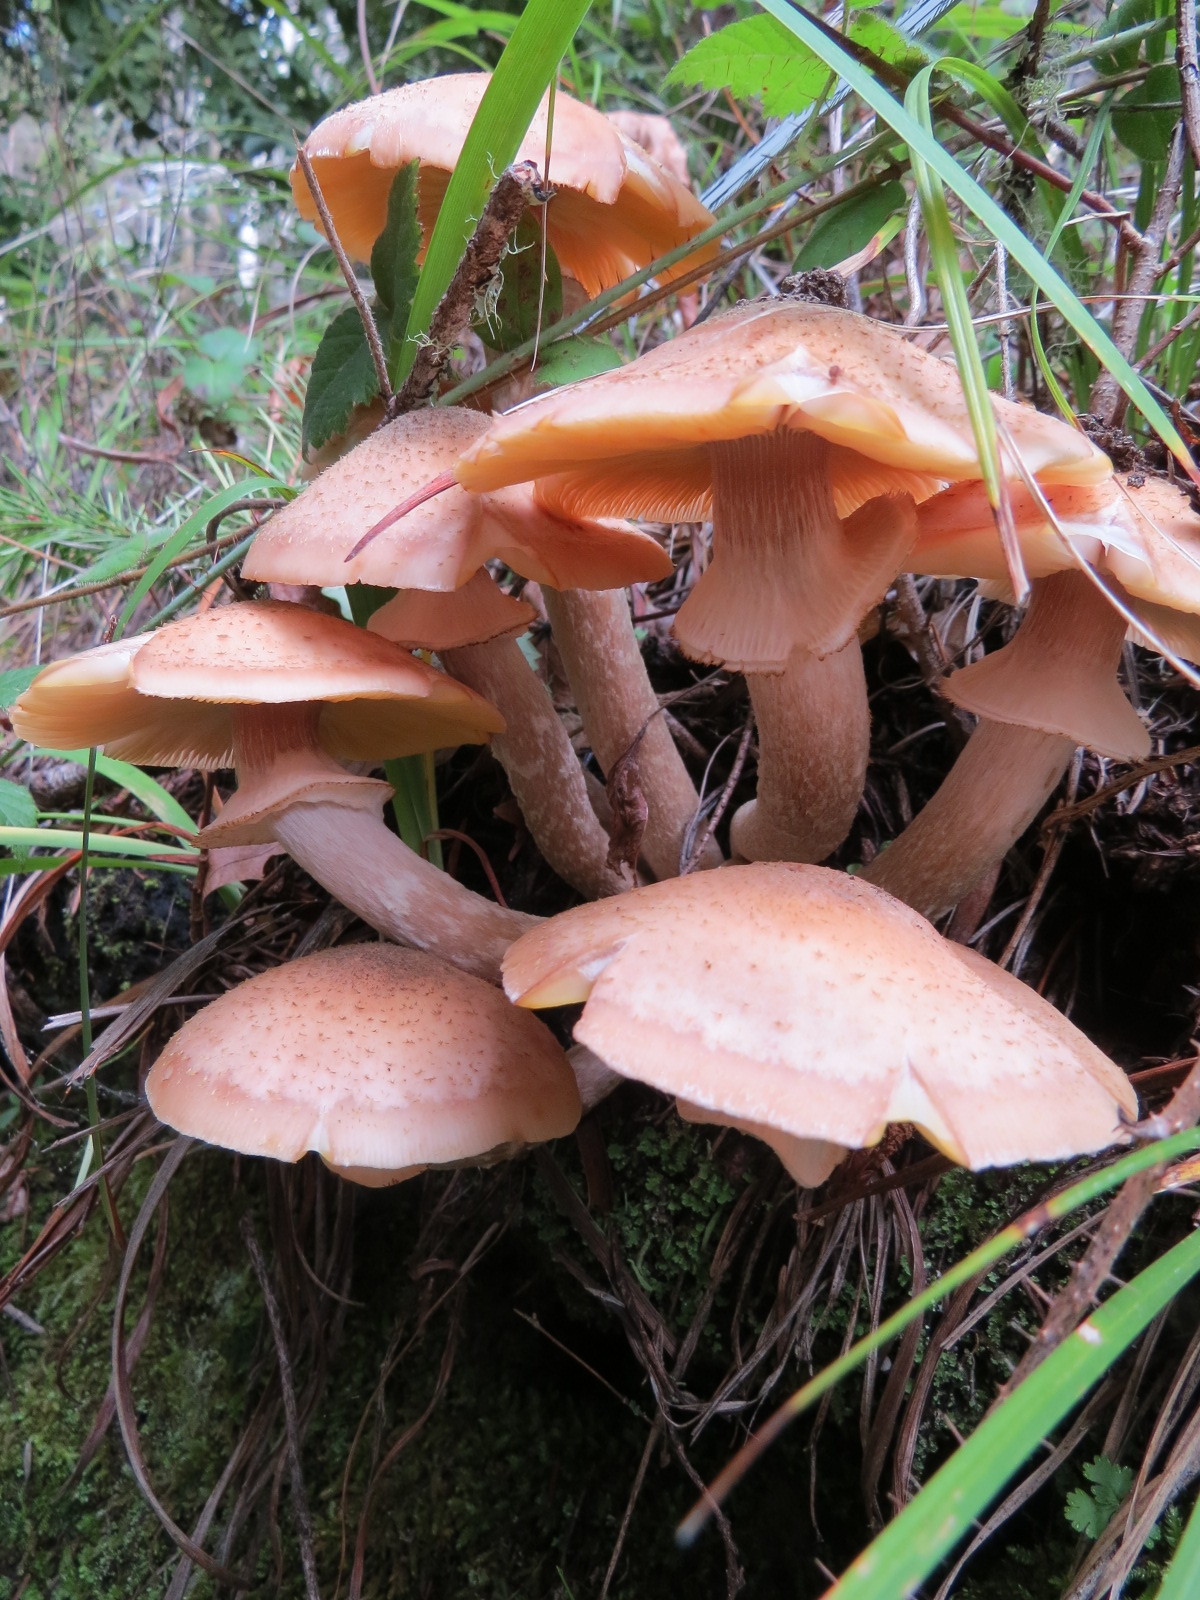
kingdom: Fungi
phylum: Basidiomycota
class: Agaricomycetes
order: Agaricales
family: Physalacriaceae
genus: Armillaria
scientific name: Armillaria mellea
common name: Honey fungus
